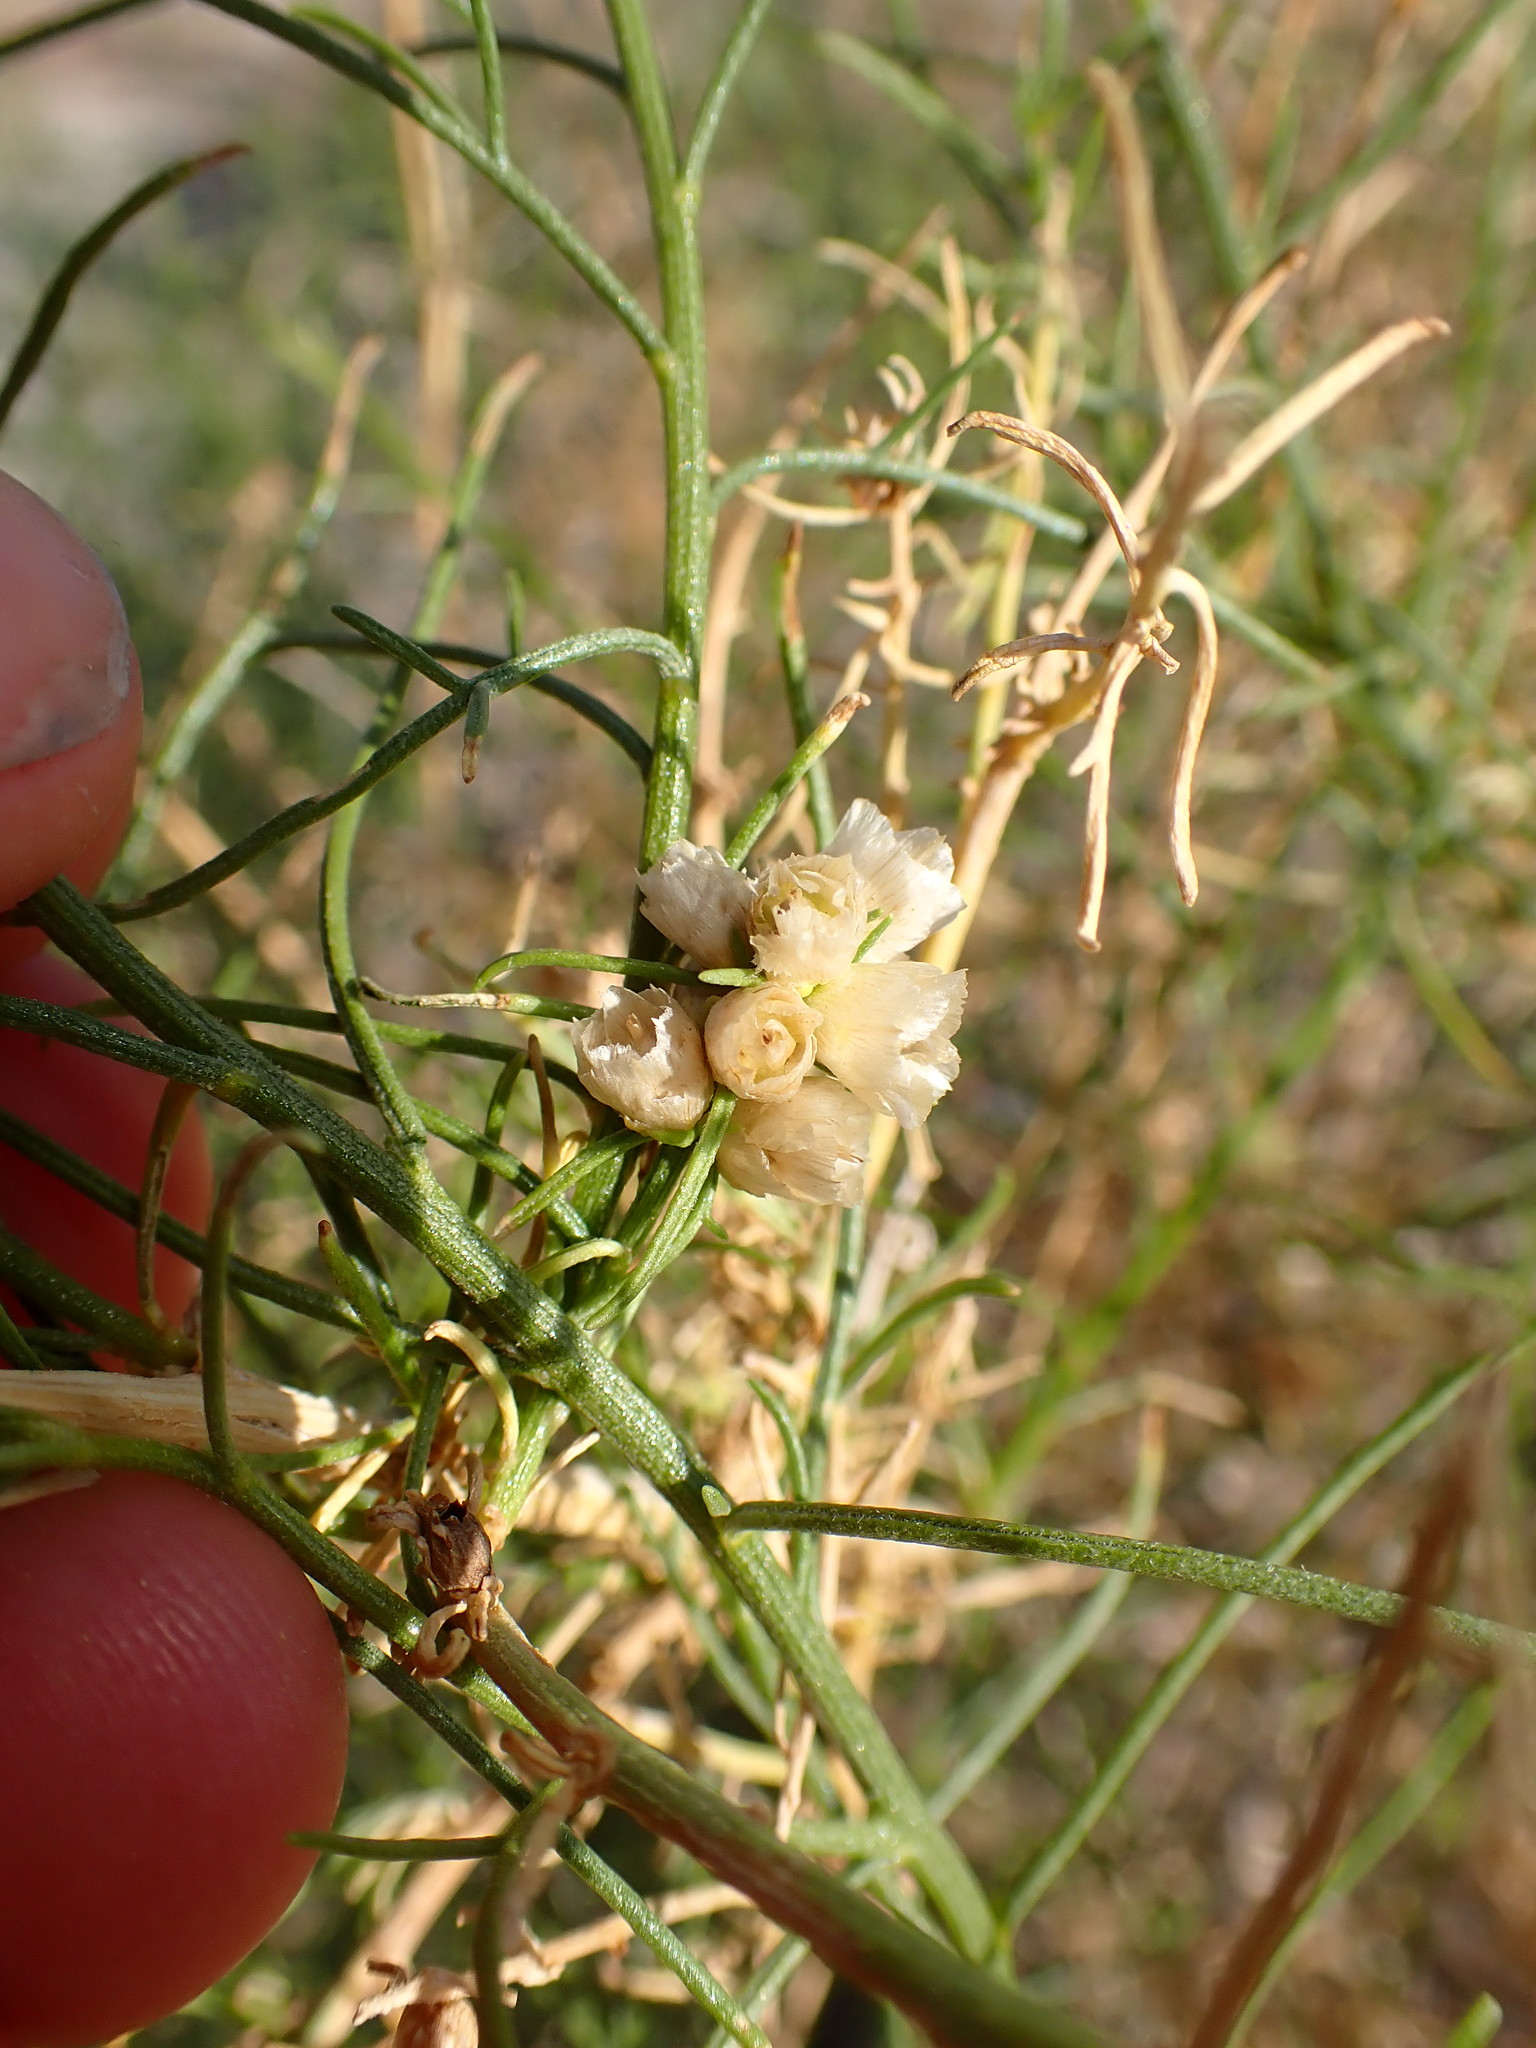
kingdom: Plantae
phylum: Tracheophyta
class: Magnoliopsida
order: Asterales
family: Asteraceae
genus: Ambrosia
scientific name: Ambrosia salsola
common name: Burrobrush
